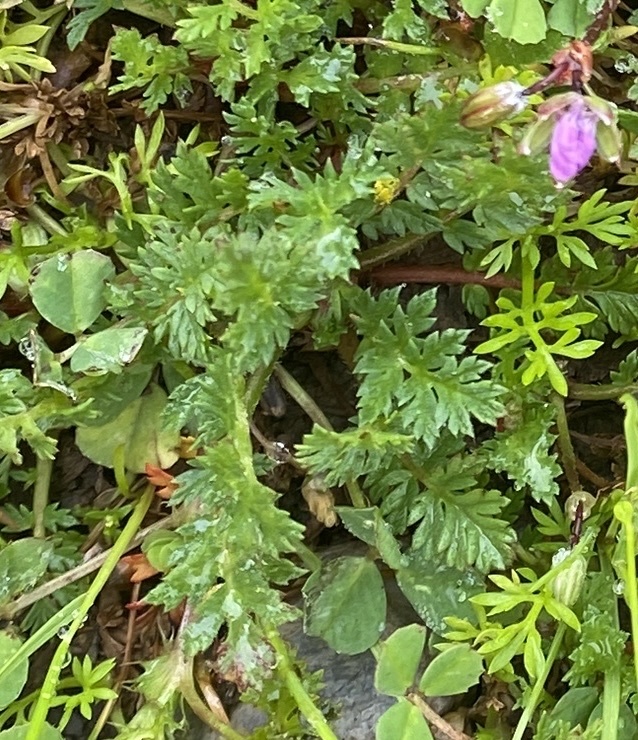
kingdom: Plantae
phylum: Tracheophyta
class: Magnoliopsida
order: Geraniales
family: Geraniaceae
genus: Erodium
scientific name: Erodium cicutarium
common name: Common stork's-bill
